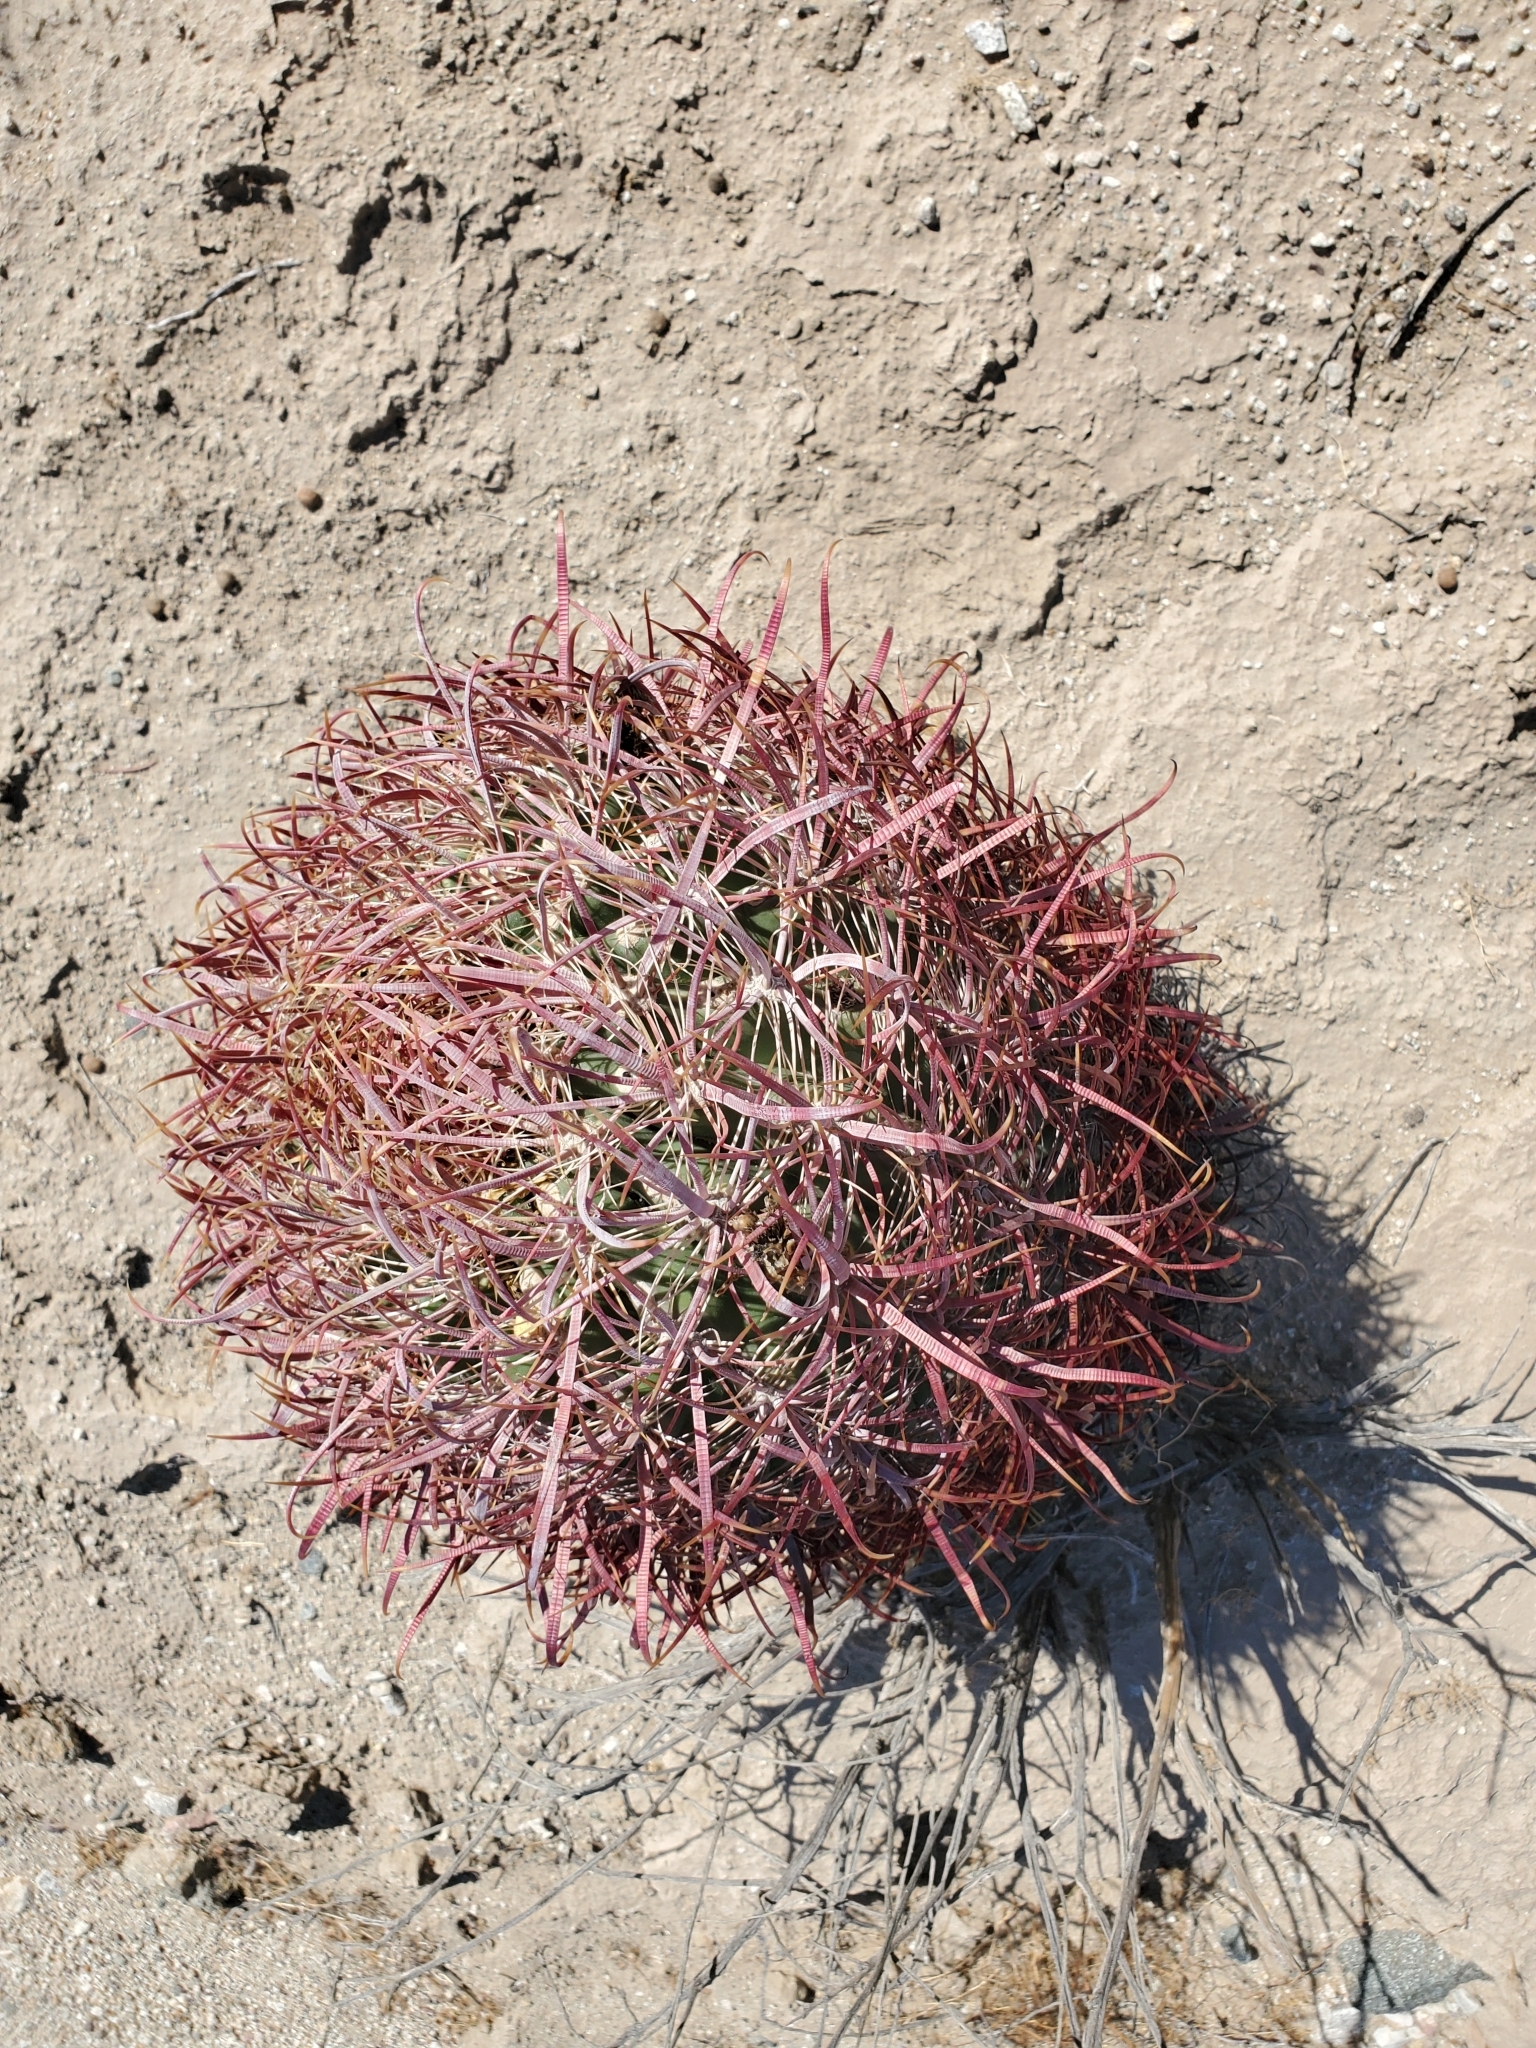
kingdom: Plantae
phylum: Tracheophyta
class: Magnoliopsida
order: Caryophyllales
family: Cactaceae
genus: Ferocactus
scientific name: Ferocactus cylindraceus
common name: California barrel cactus
